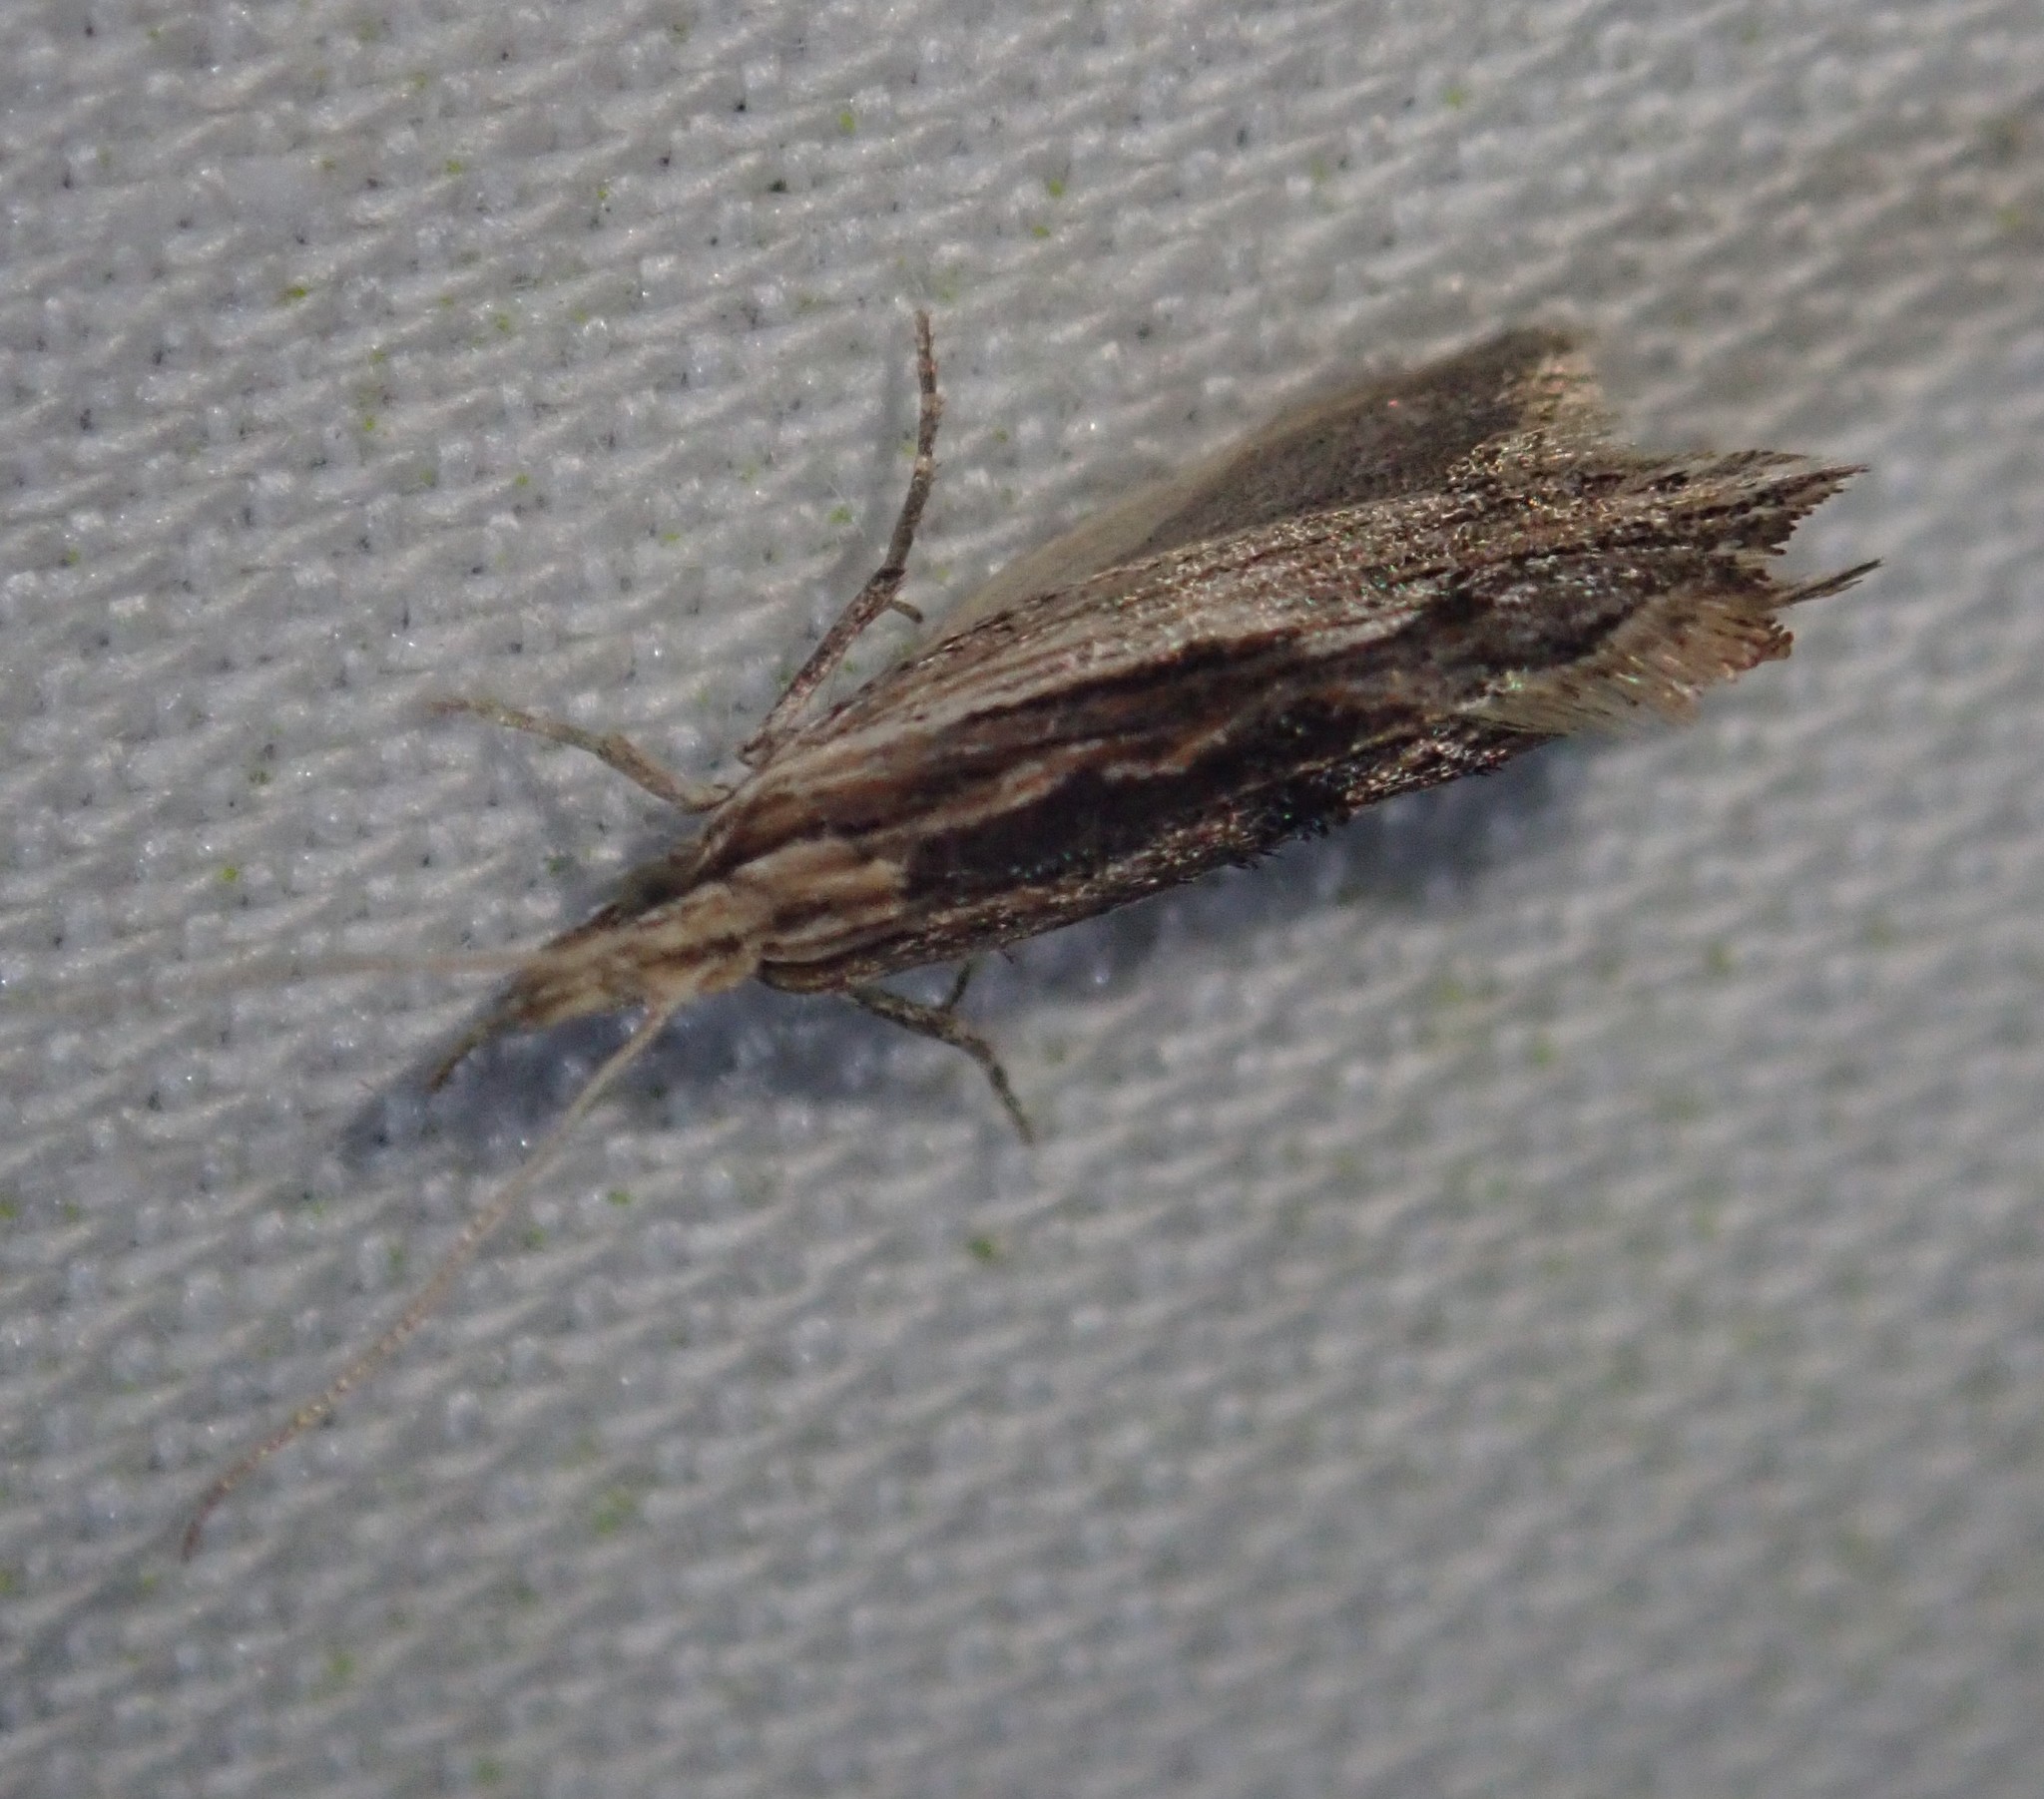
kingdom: Animalia
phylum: Arthropoda
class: Insecta
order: Lepidoptera
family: Ypsolophidae
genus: Ypsolopha
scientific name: Ypsolopha scabrella
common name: Wainscot smudge
